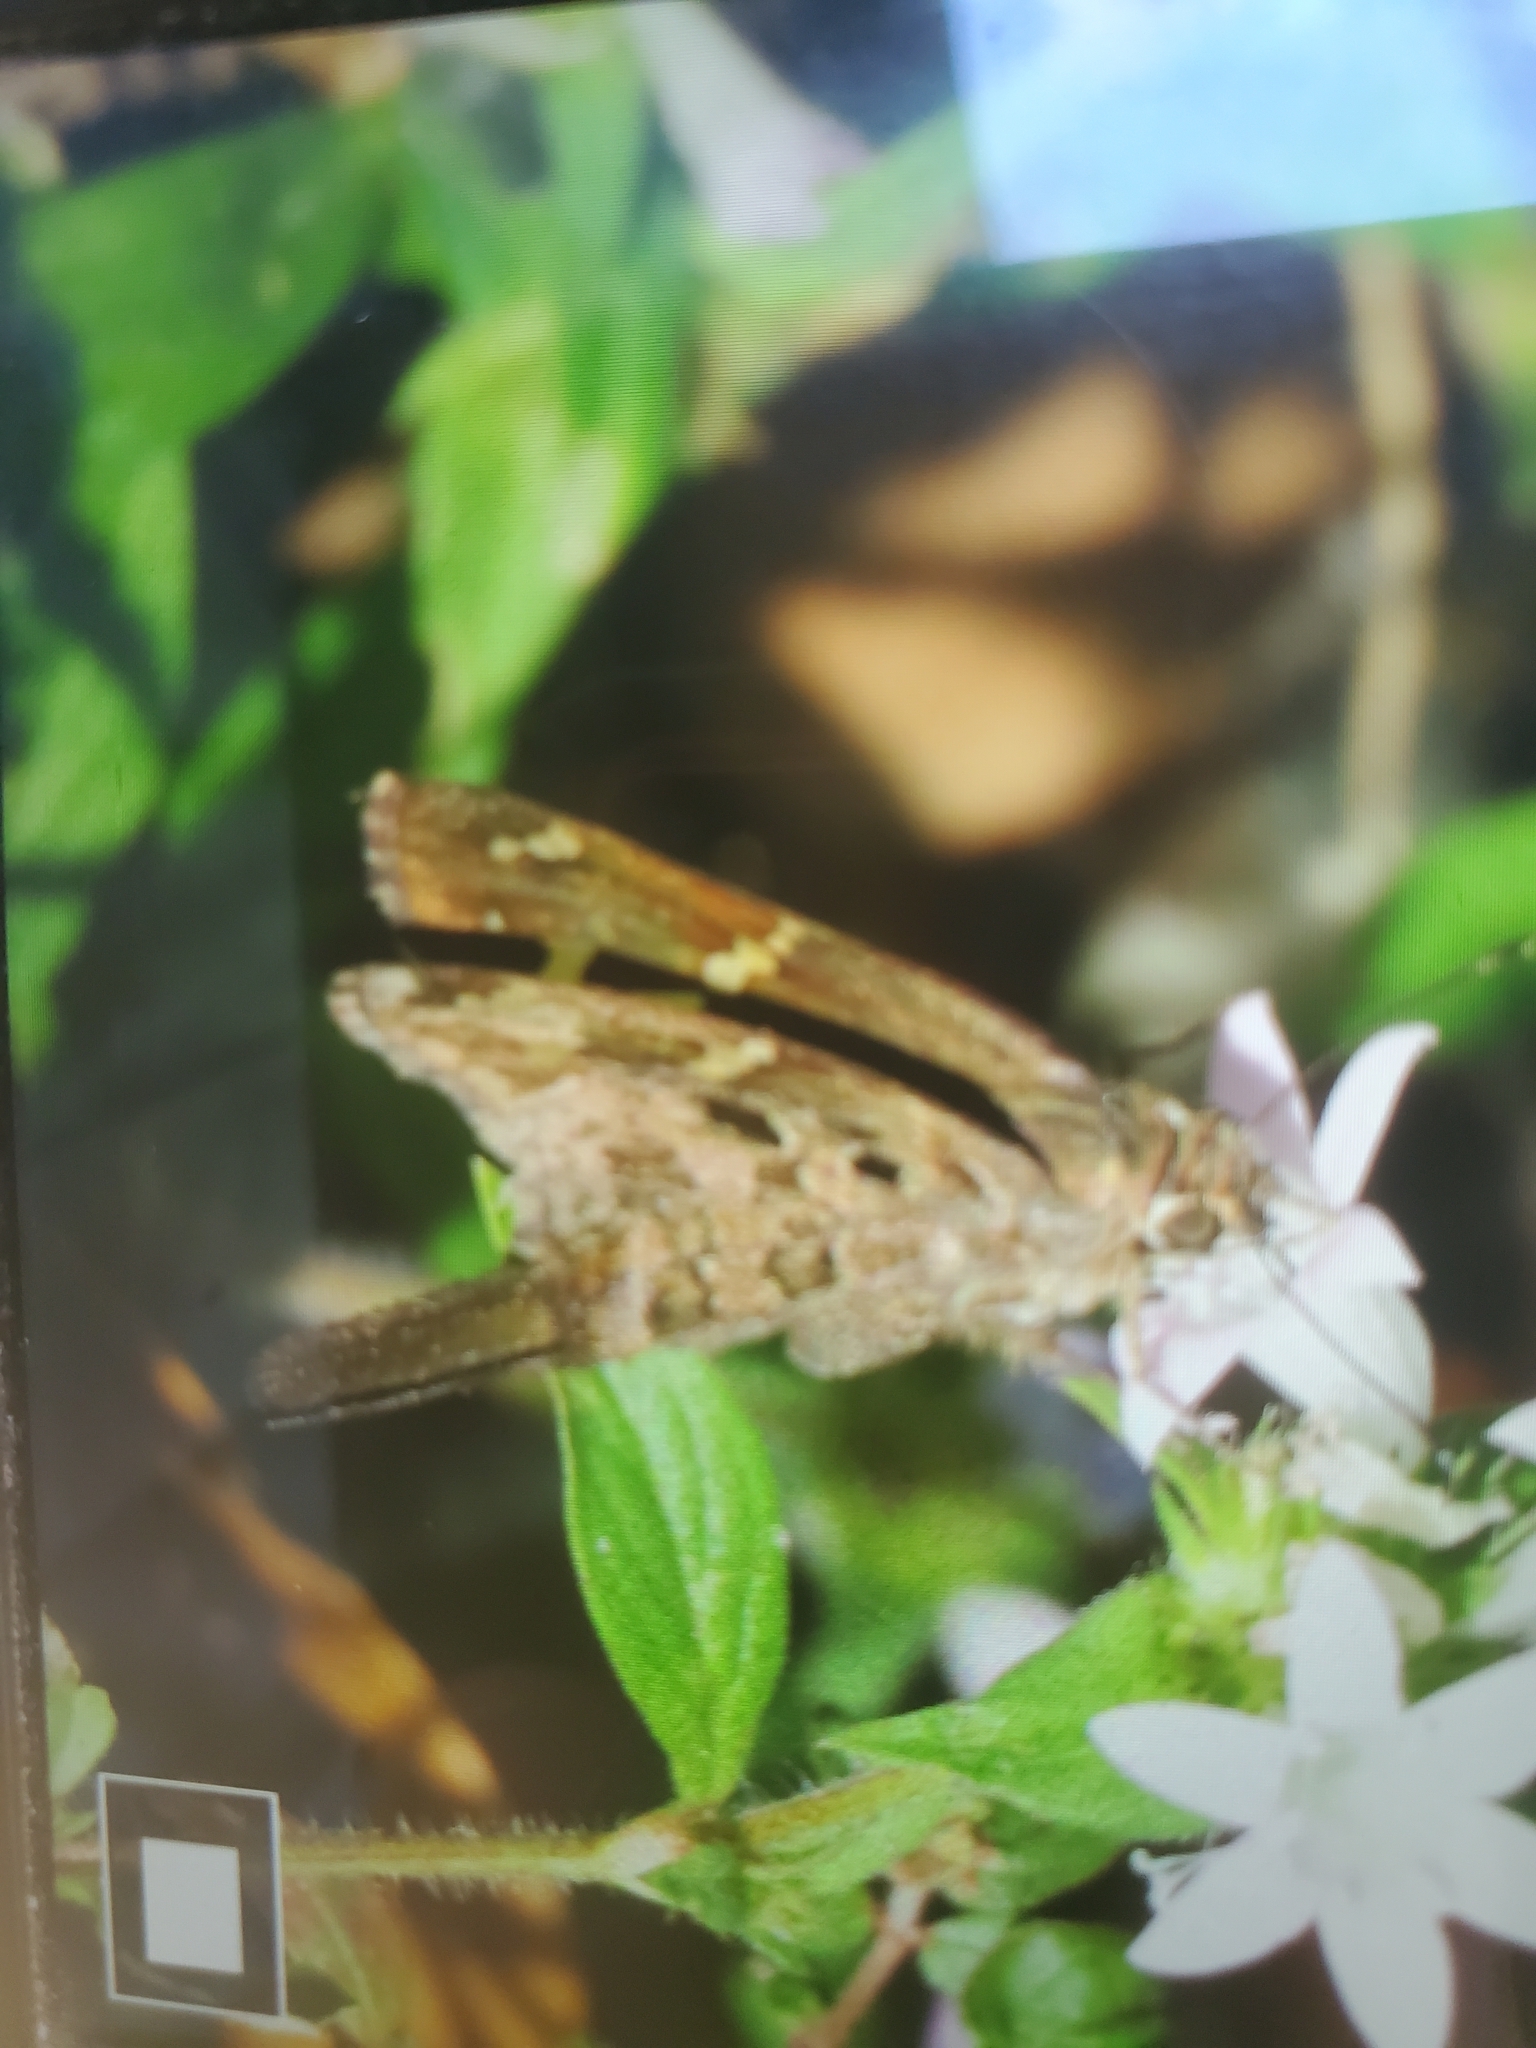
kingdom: Animalia
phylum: Arthropoda
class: Insecta
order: Lepidoptera
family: Hesperiidae
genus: Thorybes
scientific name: Thorybes
